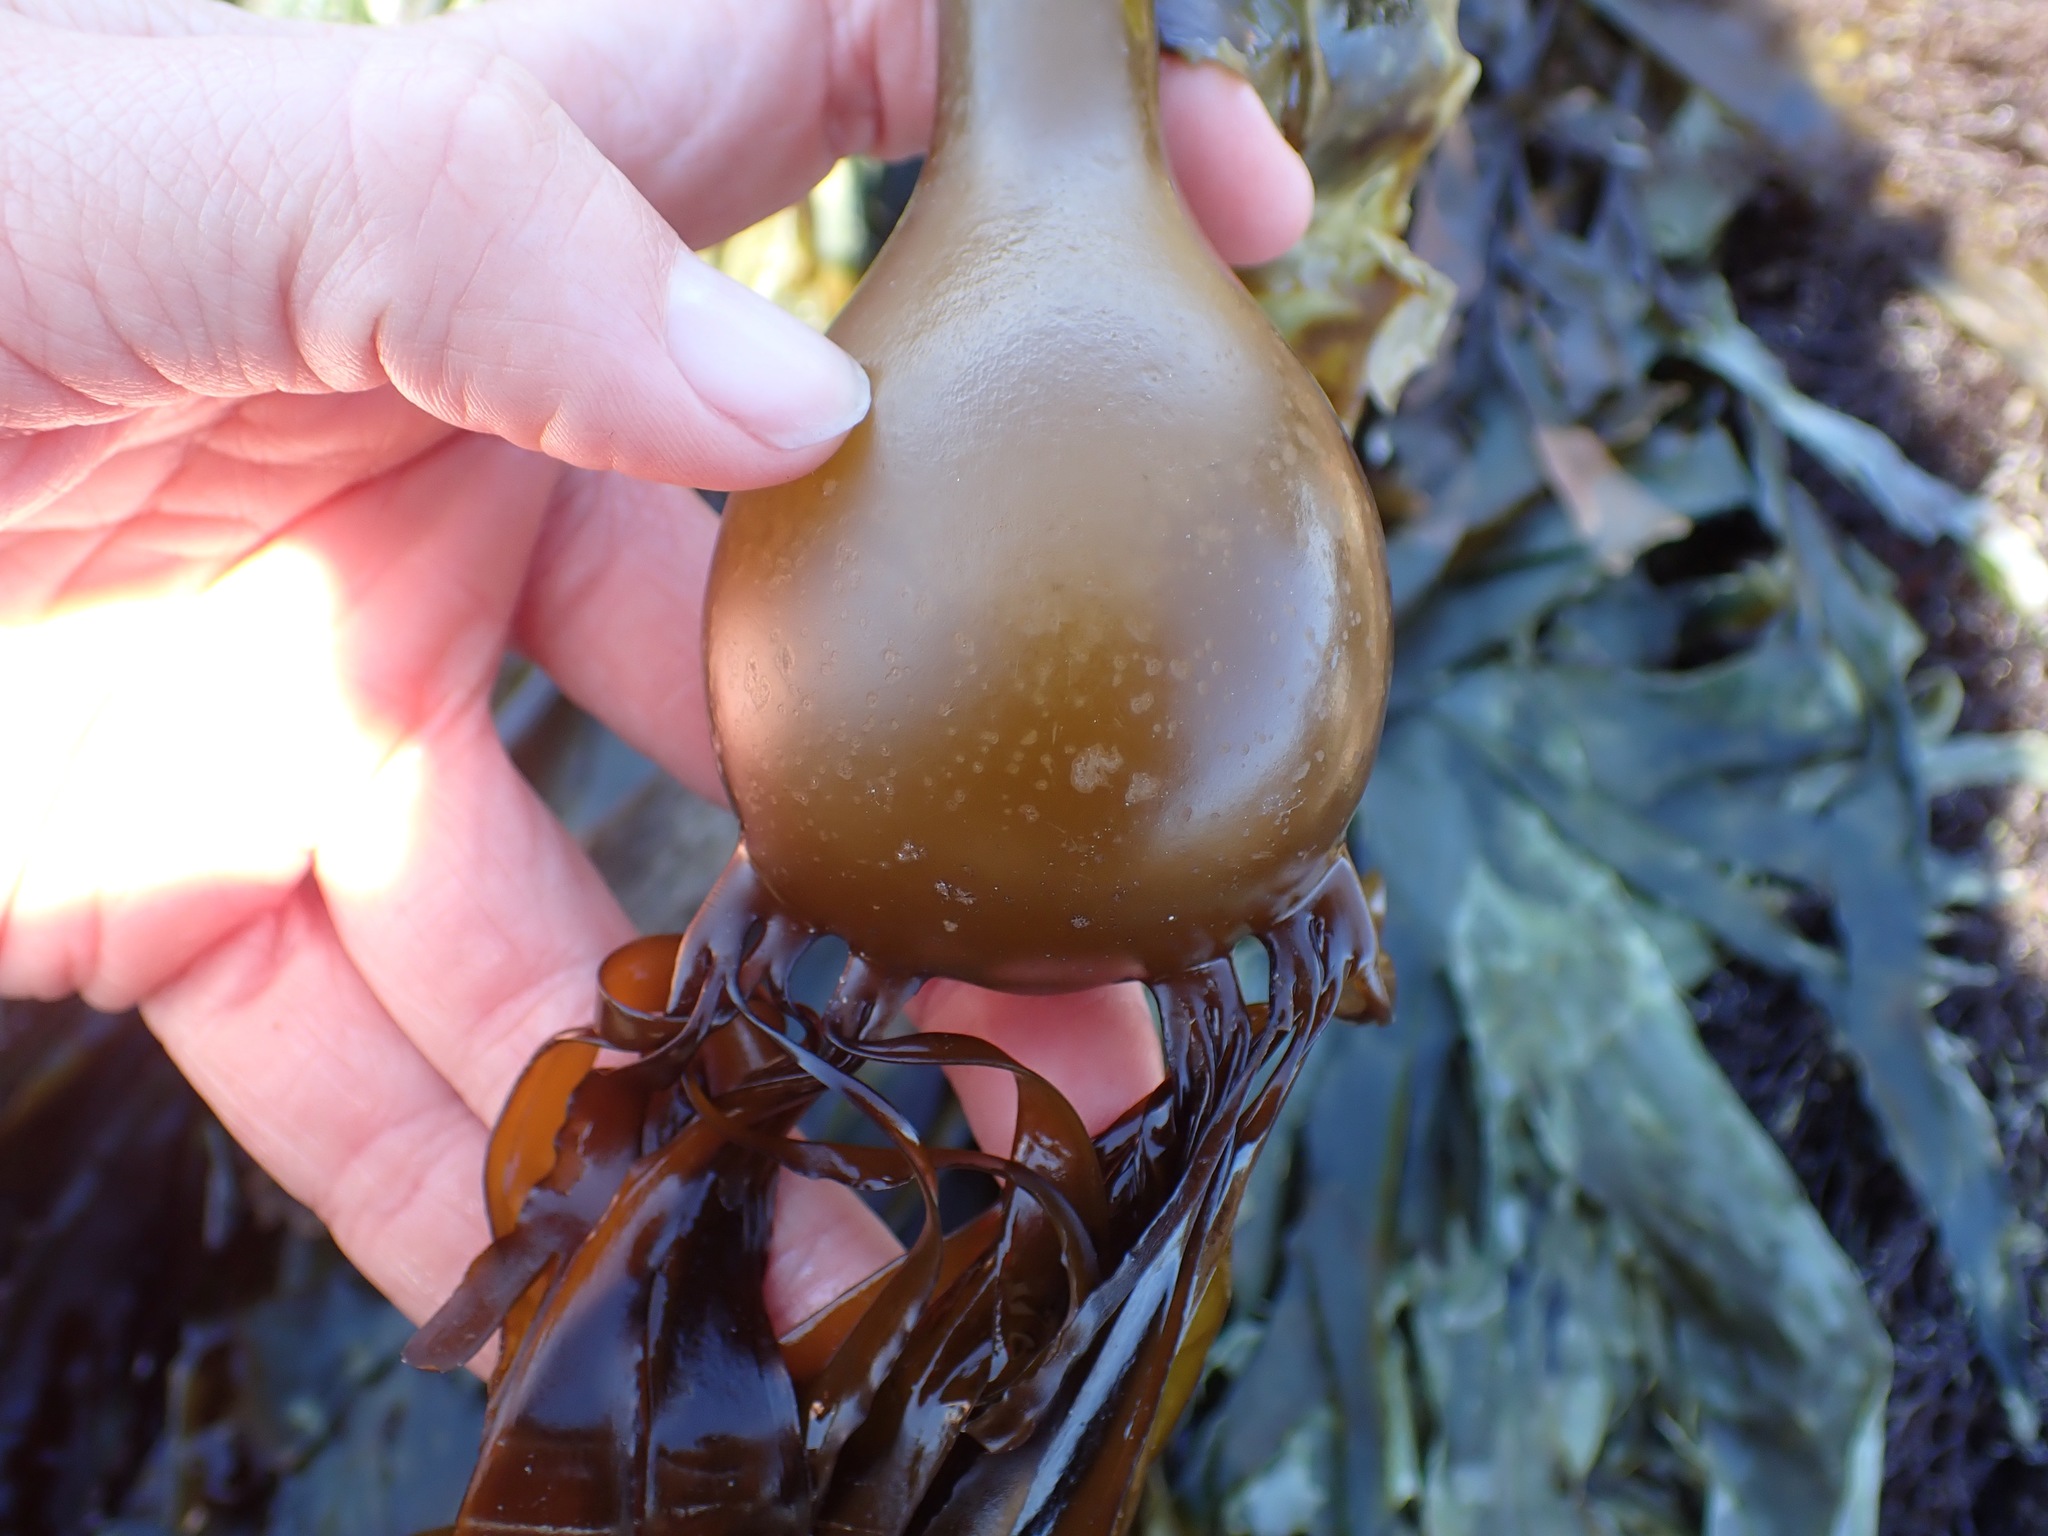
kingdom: Chromista
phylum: Ochrophyta
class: Phaeophyceae
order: Laminariales
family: Laminariaceae
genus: Nereocystis
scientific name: Nereocystis luetkeana
